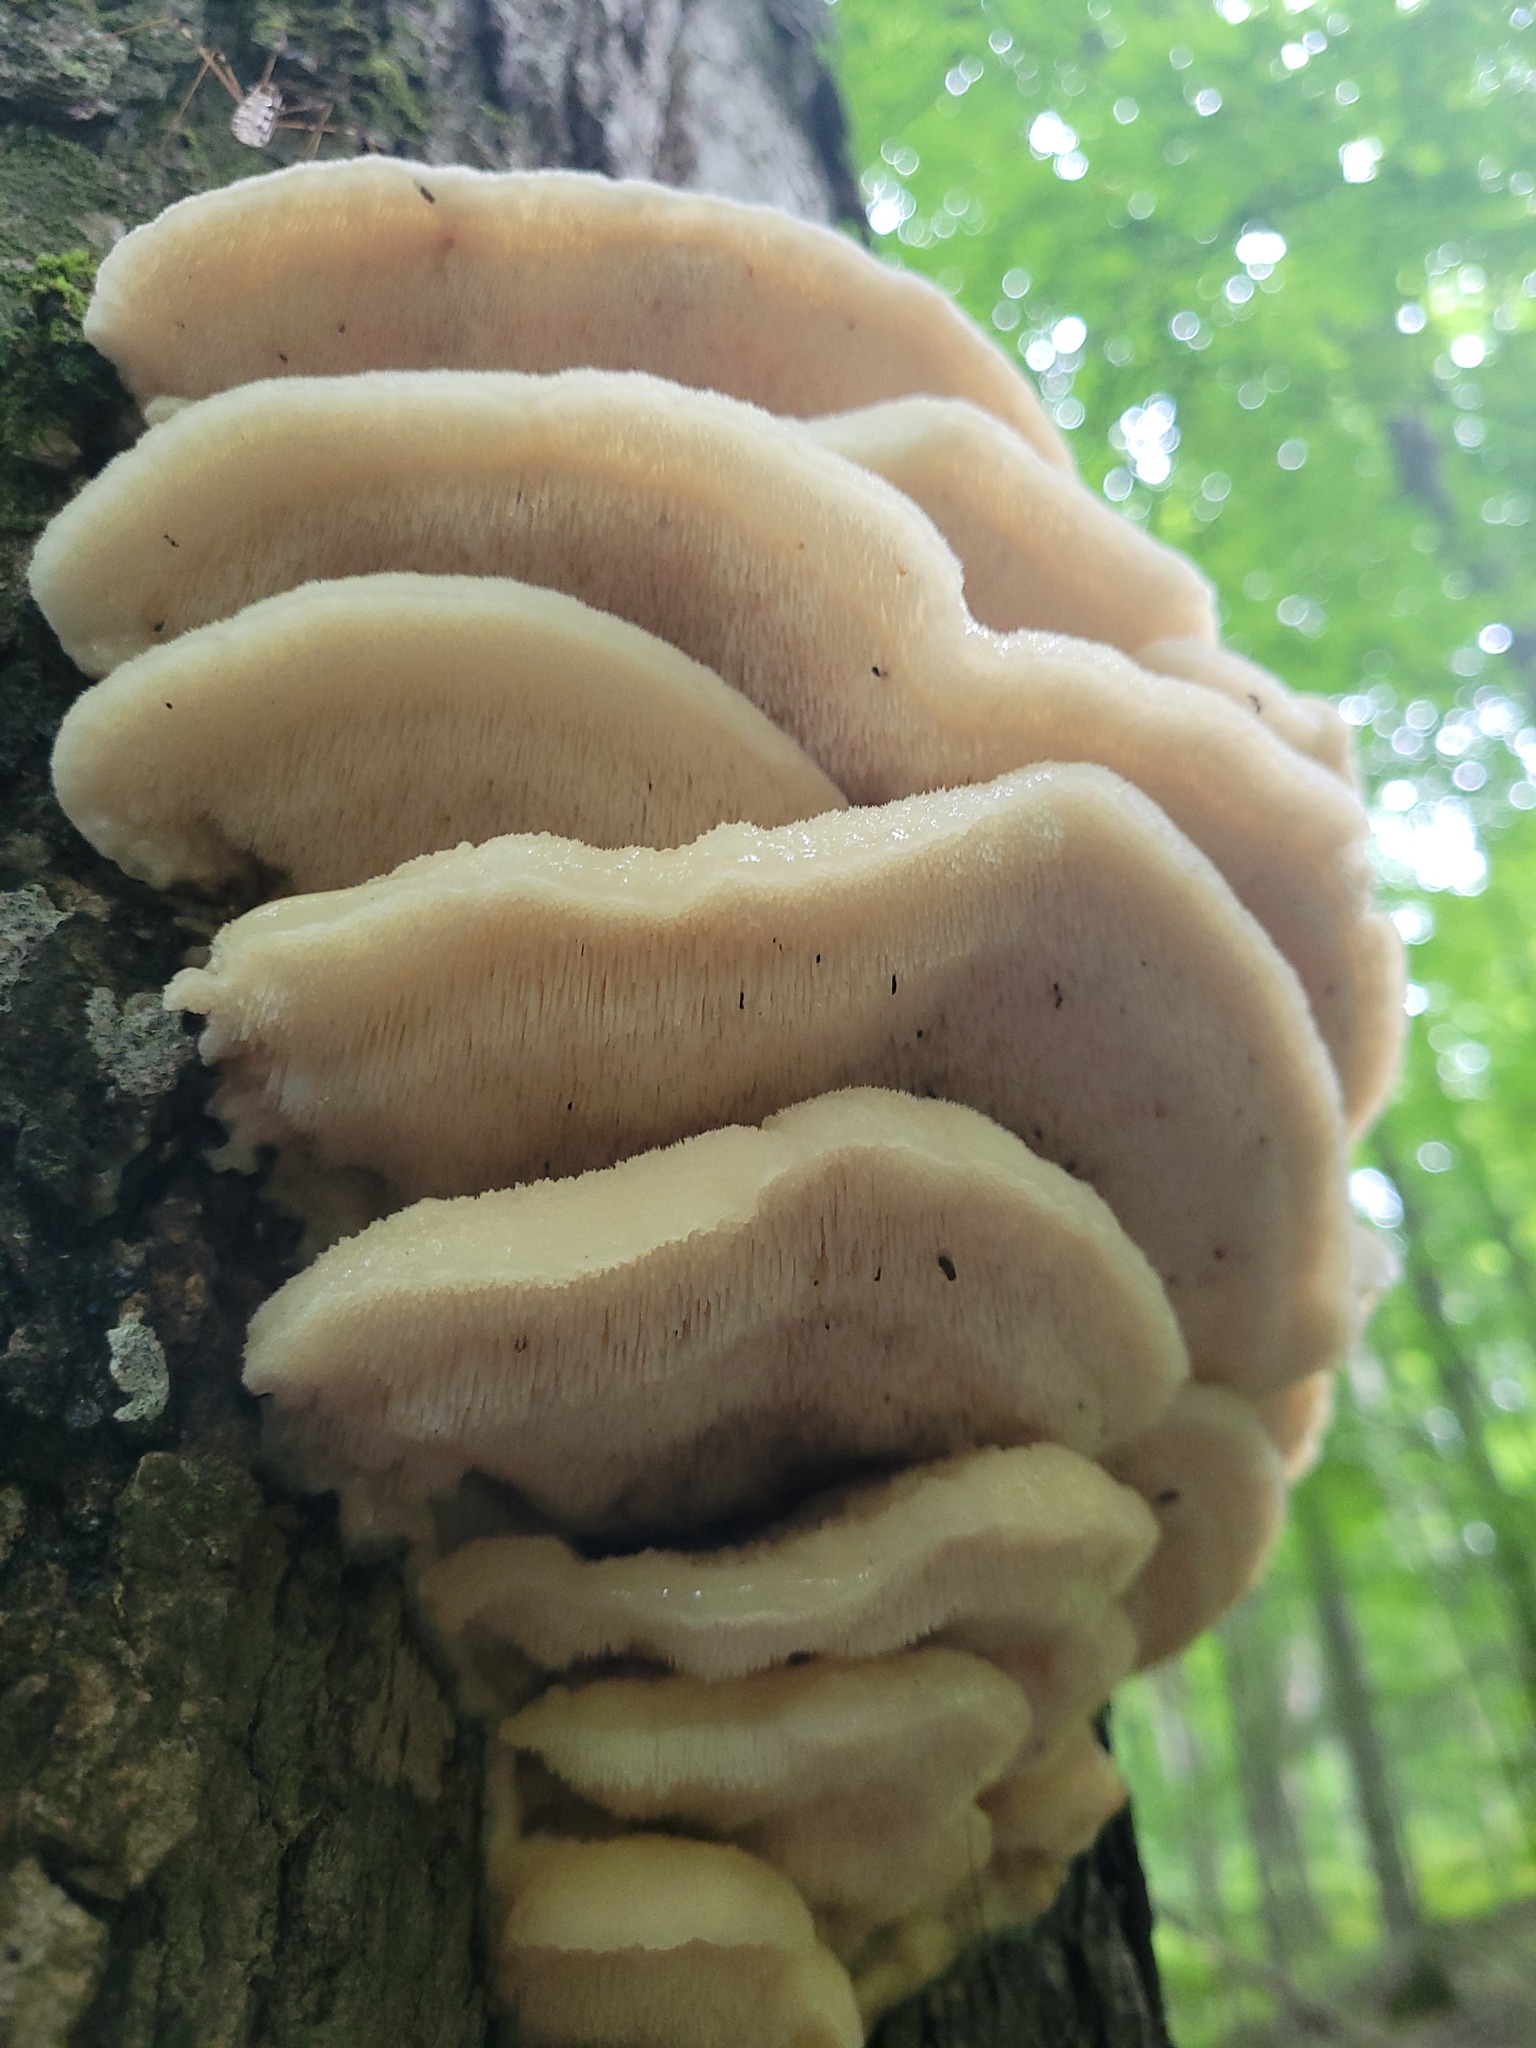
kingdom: Fungi
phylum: Basidiomycota
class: Agaricomycetes
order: Polyporales
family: Meruliaceae
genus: Climacodon
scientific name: Climacodon septentrionalis
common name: Northern tooth
